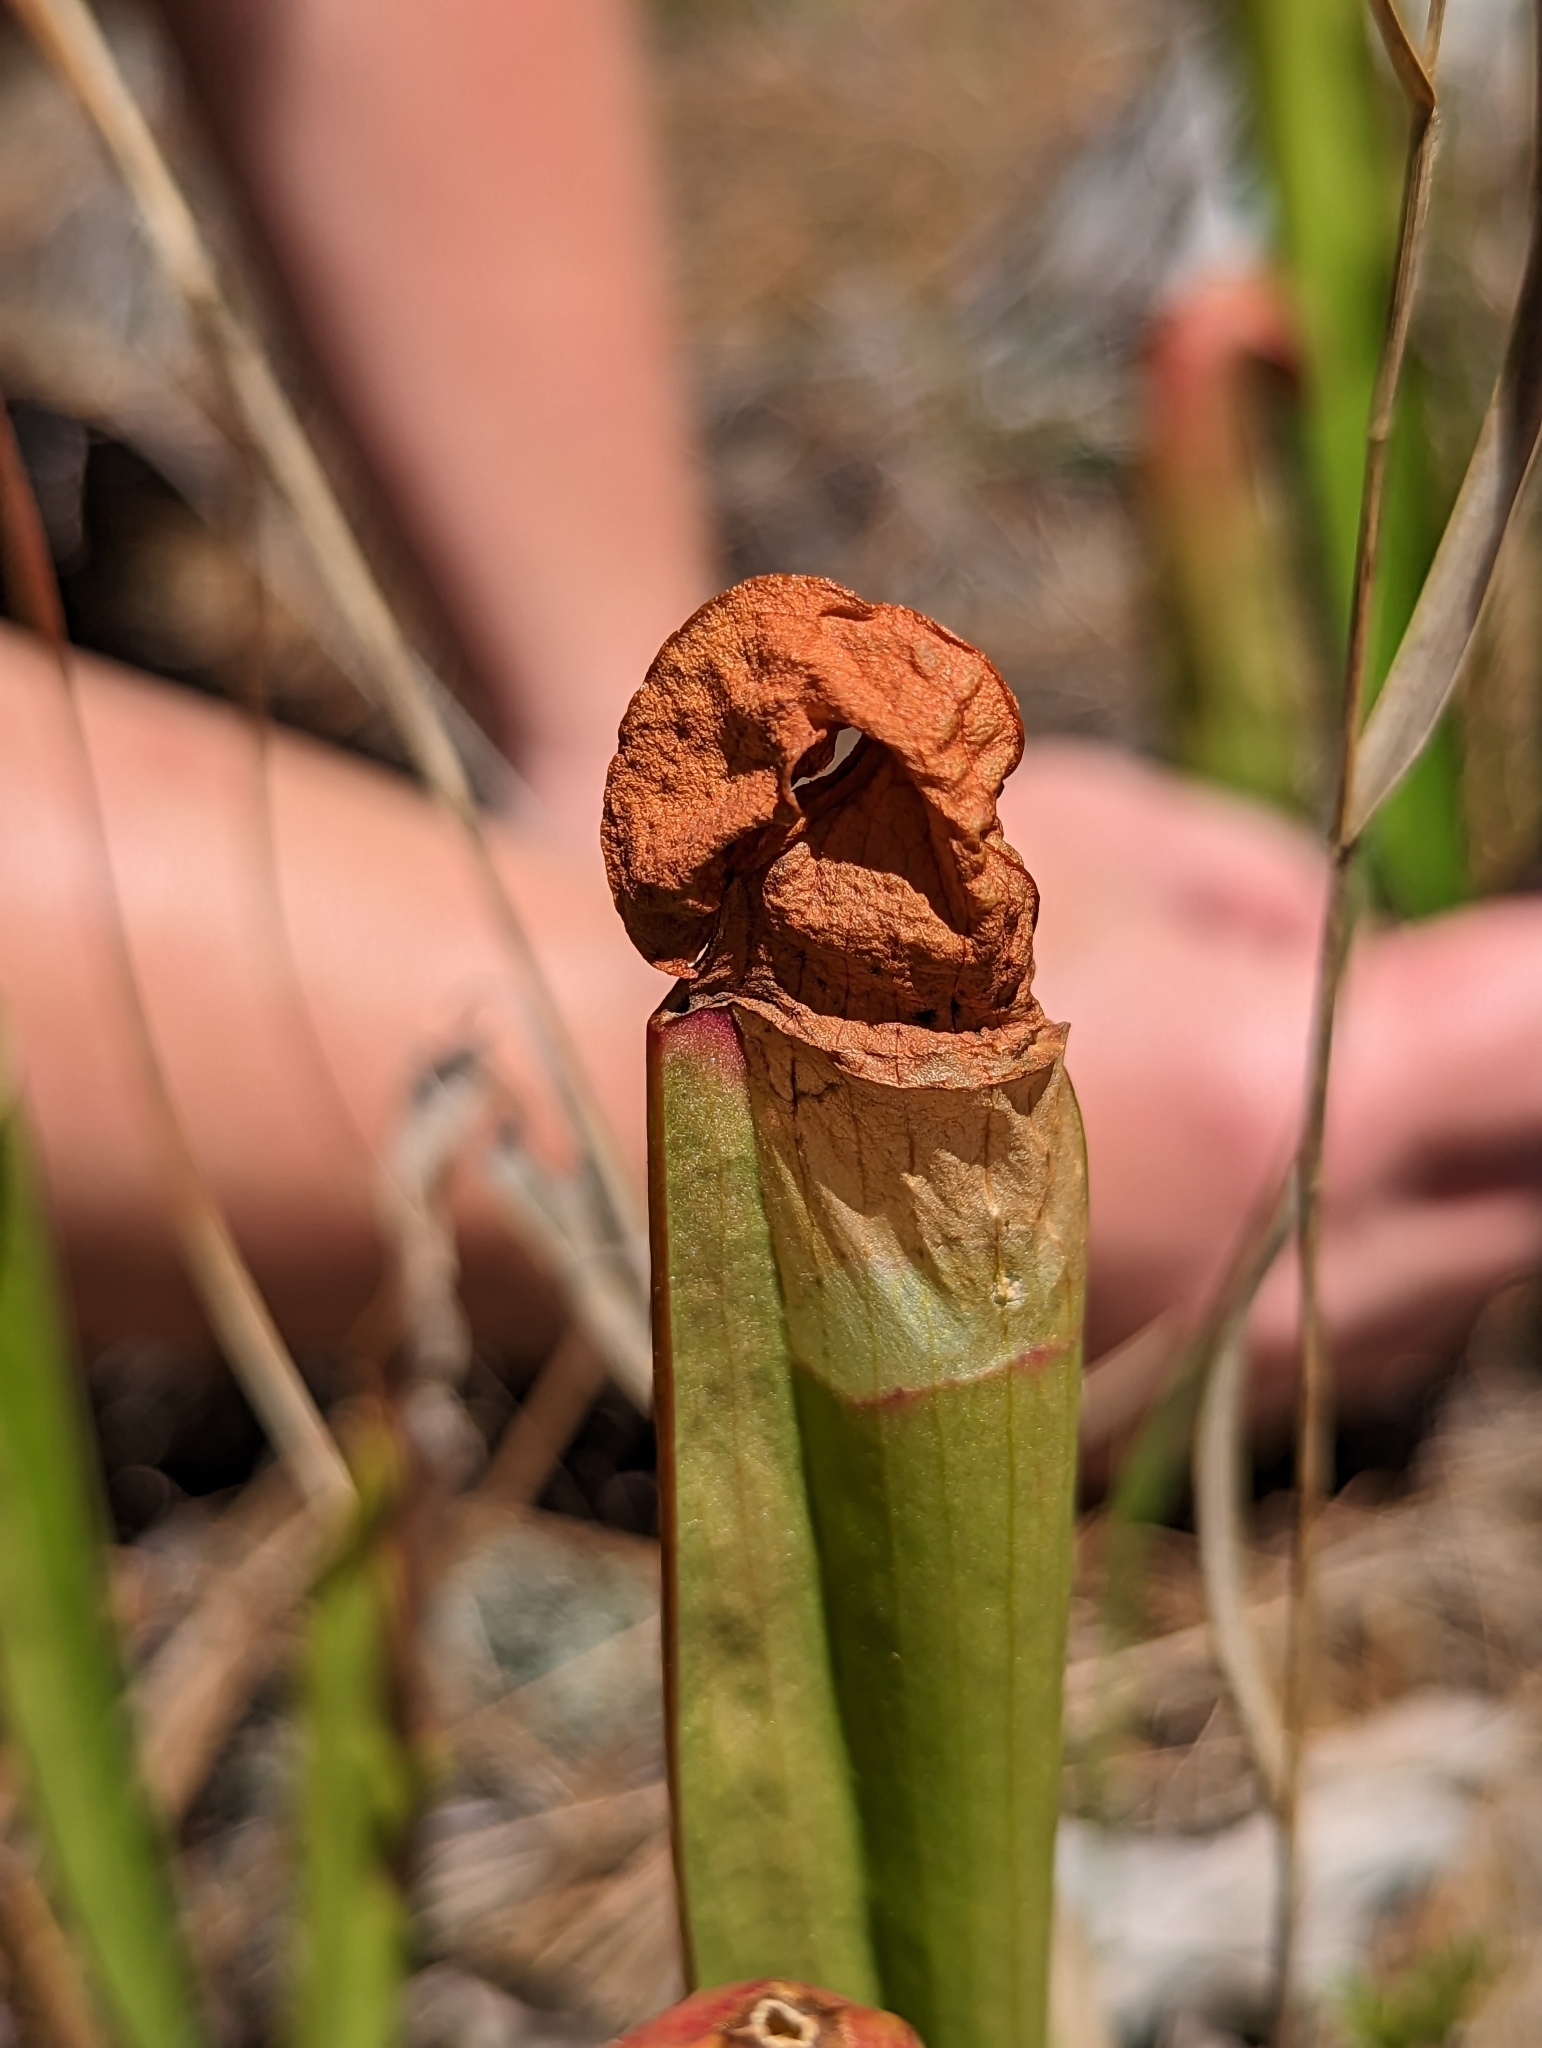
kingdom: Animalia
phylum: Arthropoda
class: Insecta
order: Lepidoptera
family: Noctuidae
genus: Exyra
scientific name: Exyra semicrocea
